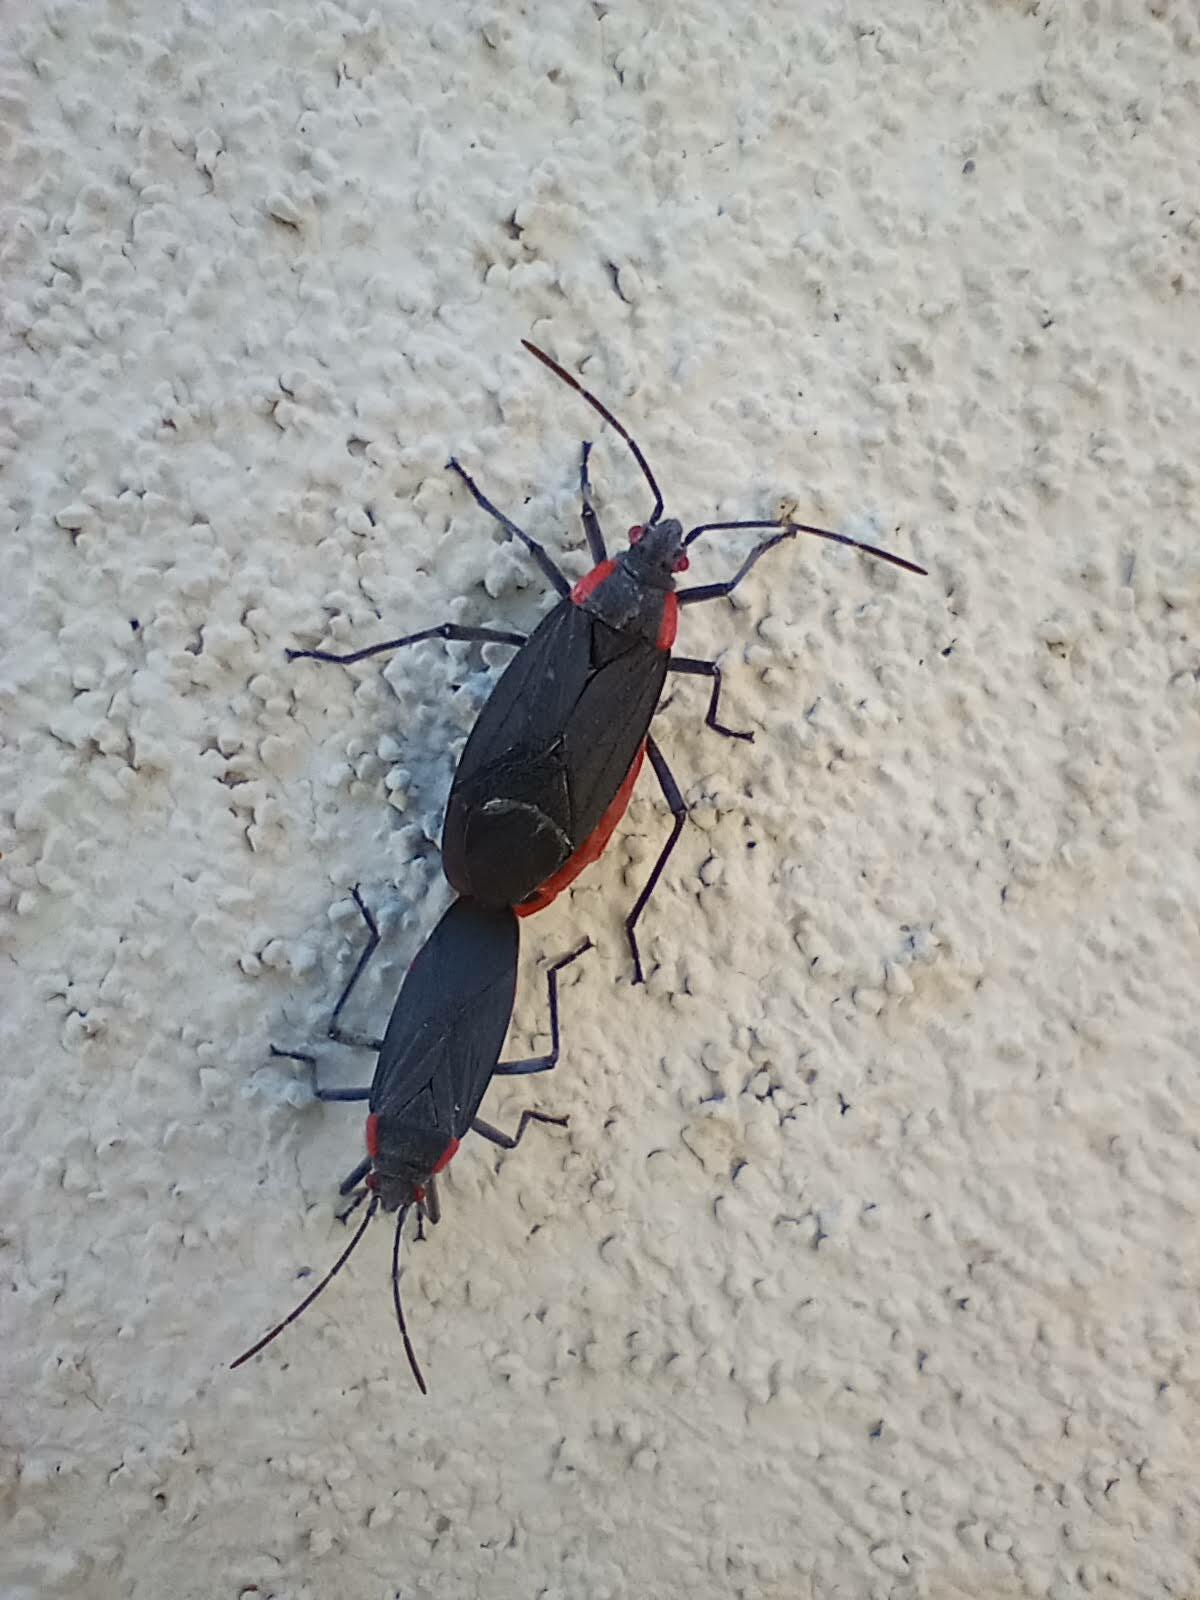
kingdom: Animalia
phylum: Arthropoda
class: Insecta
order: Hemiptera
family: Rhopalidae
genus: Jadera
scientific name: Jadera haematoloma
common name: Red-shouldered bug
